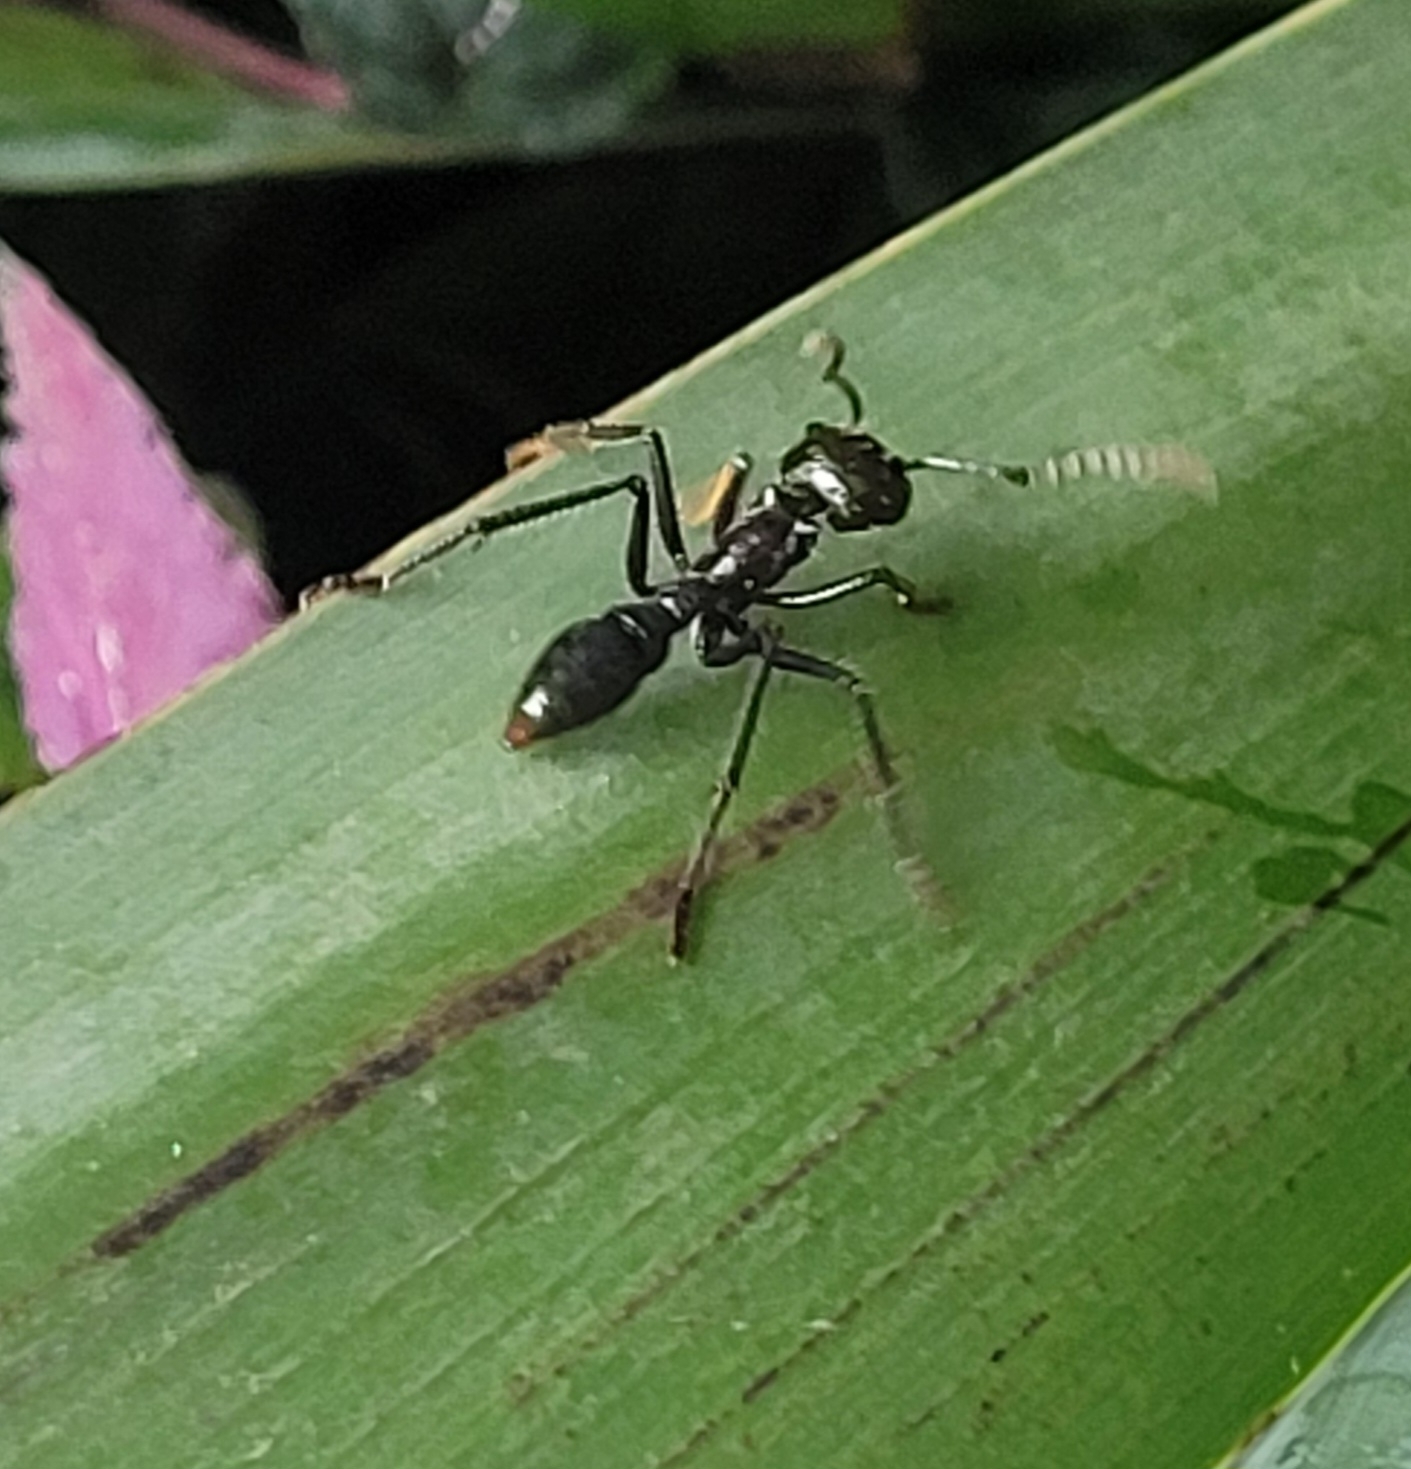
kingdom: Animalia
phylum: Arthropoda
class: Insecta
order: Hymenoptera
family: Formicidae
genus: Paraponera
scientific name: Paraponera clavata
